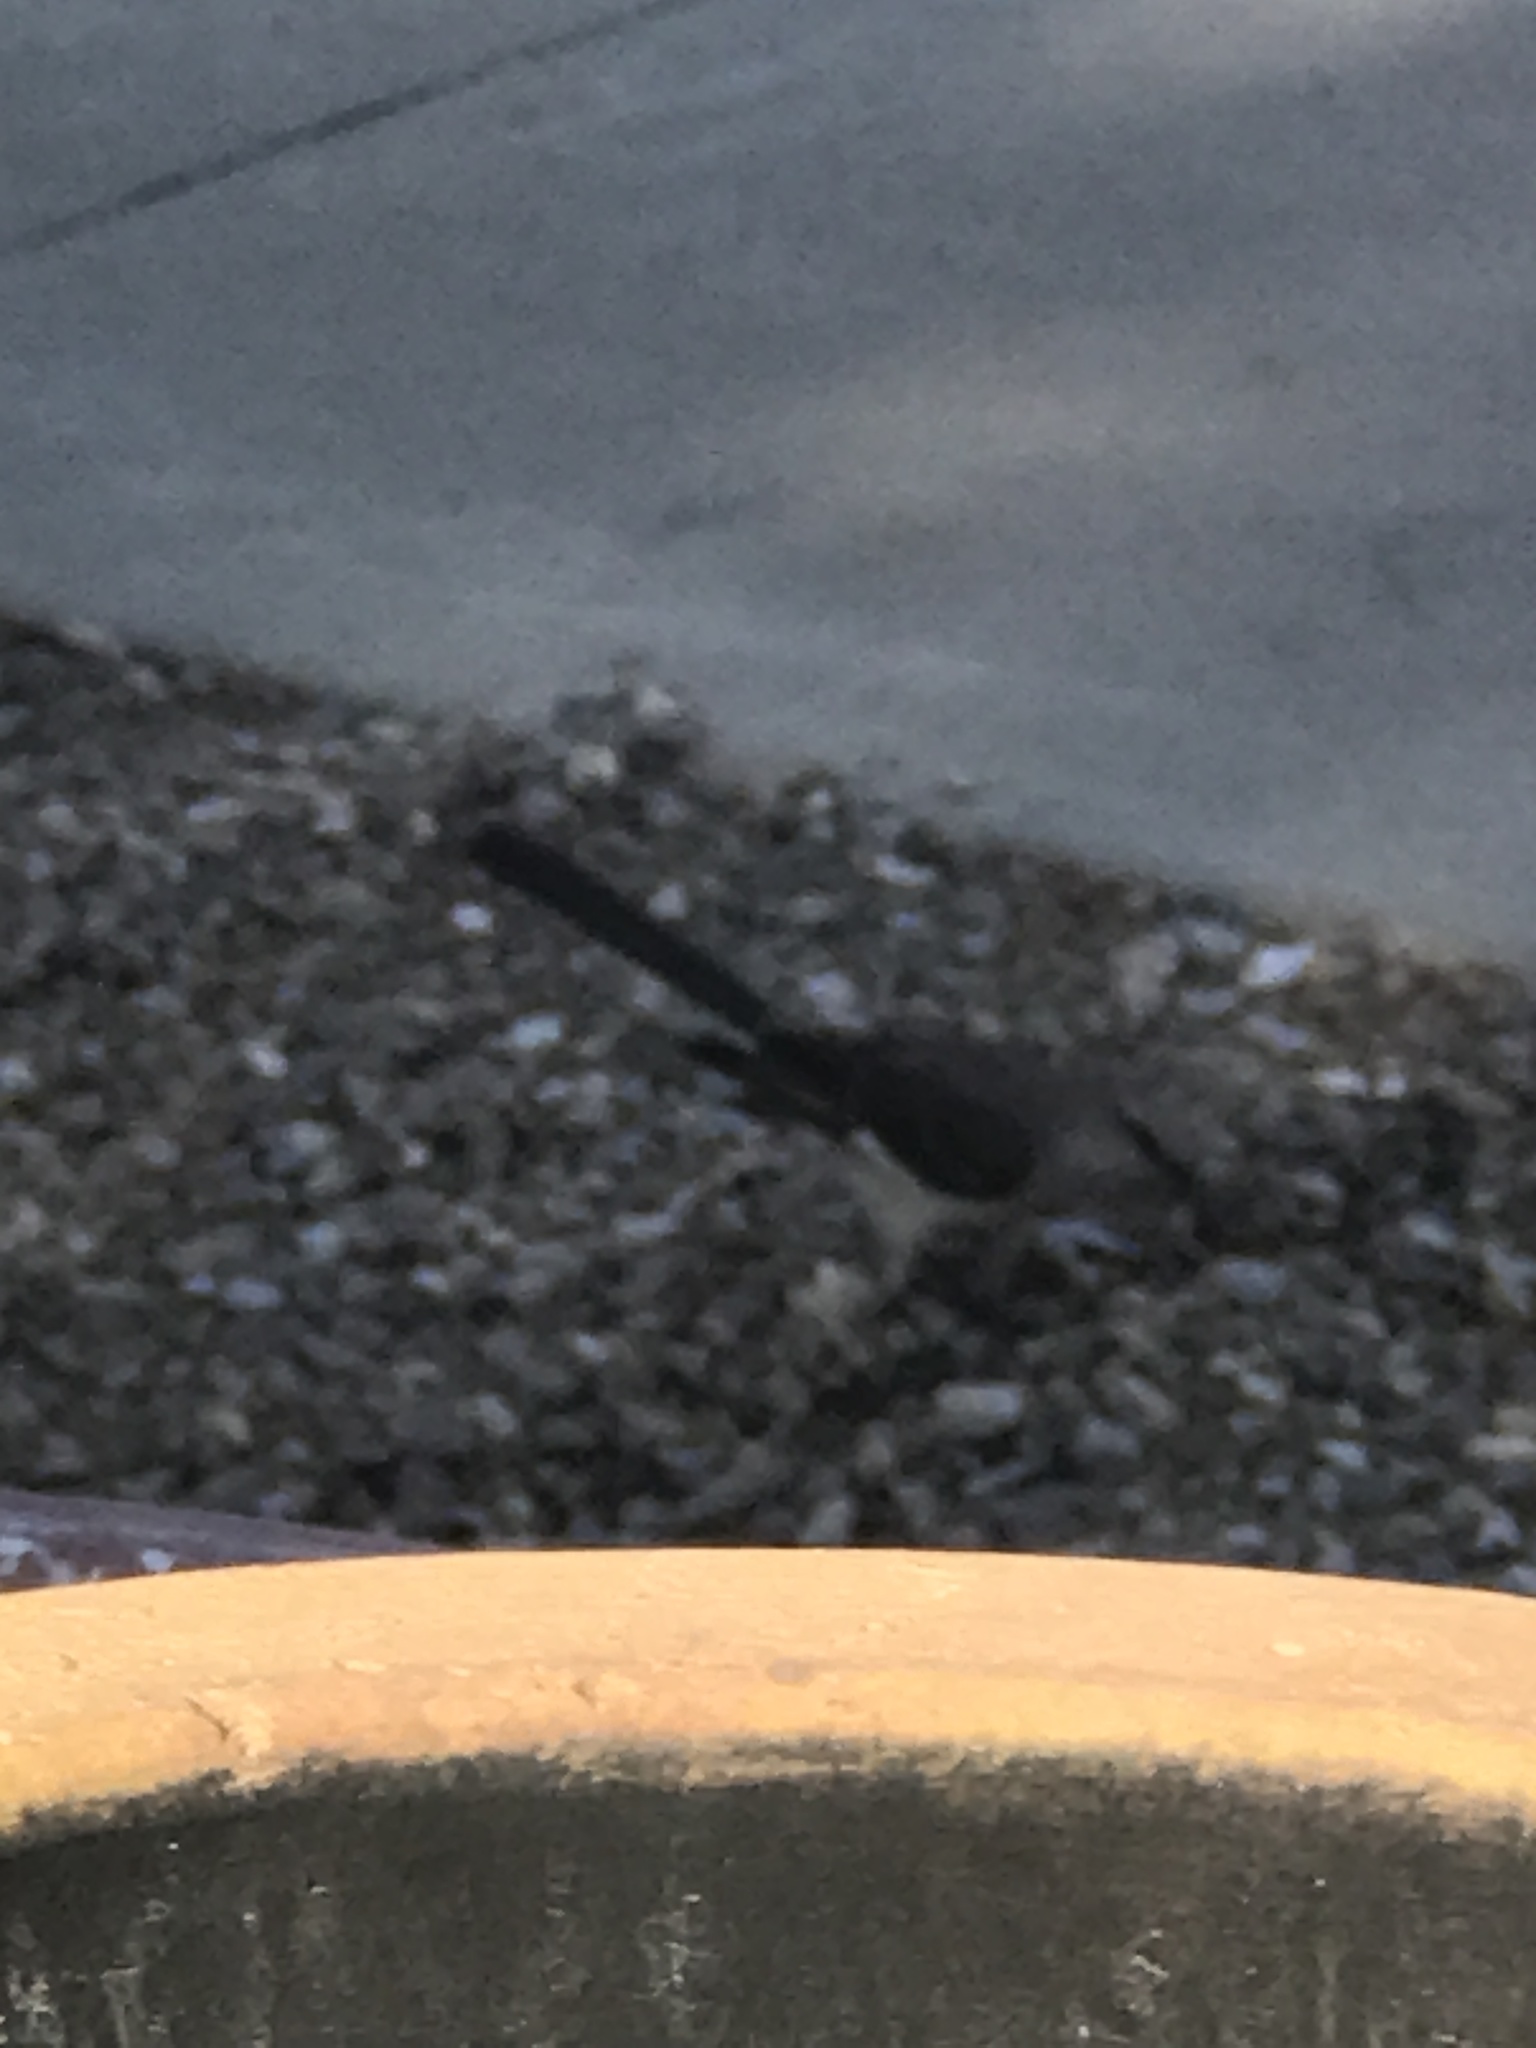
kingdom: Animalia
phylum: Chordata
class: Aves
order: Passeriformes
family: Mimidae
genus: Mimus
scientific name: Mimus polyglottos
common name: Northern mockingbird
